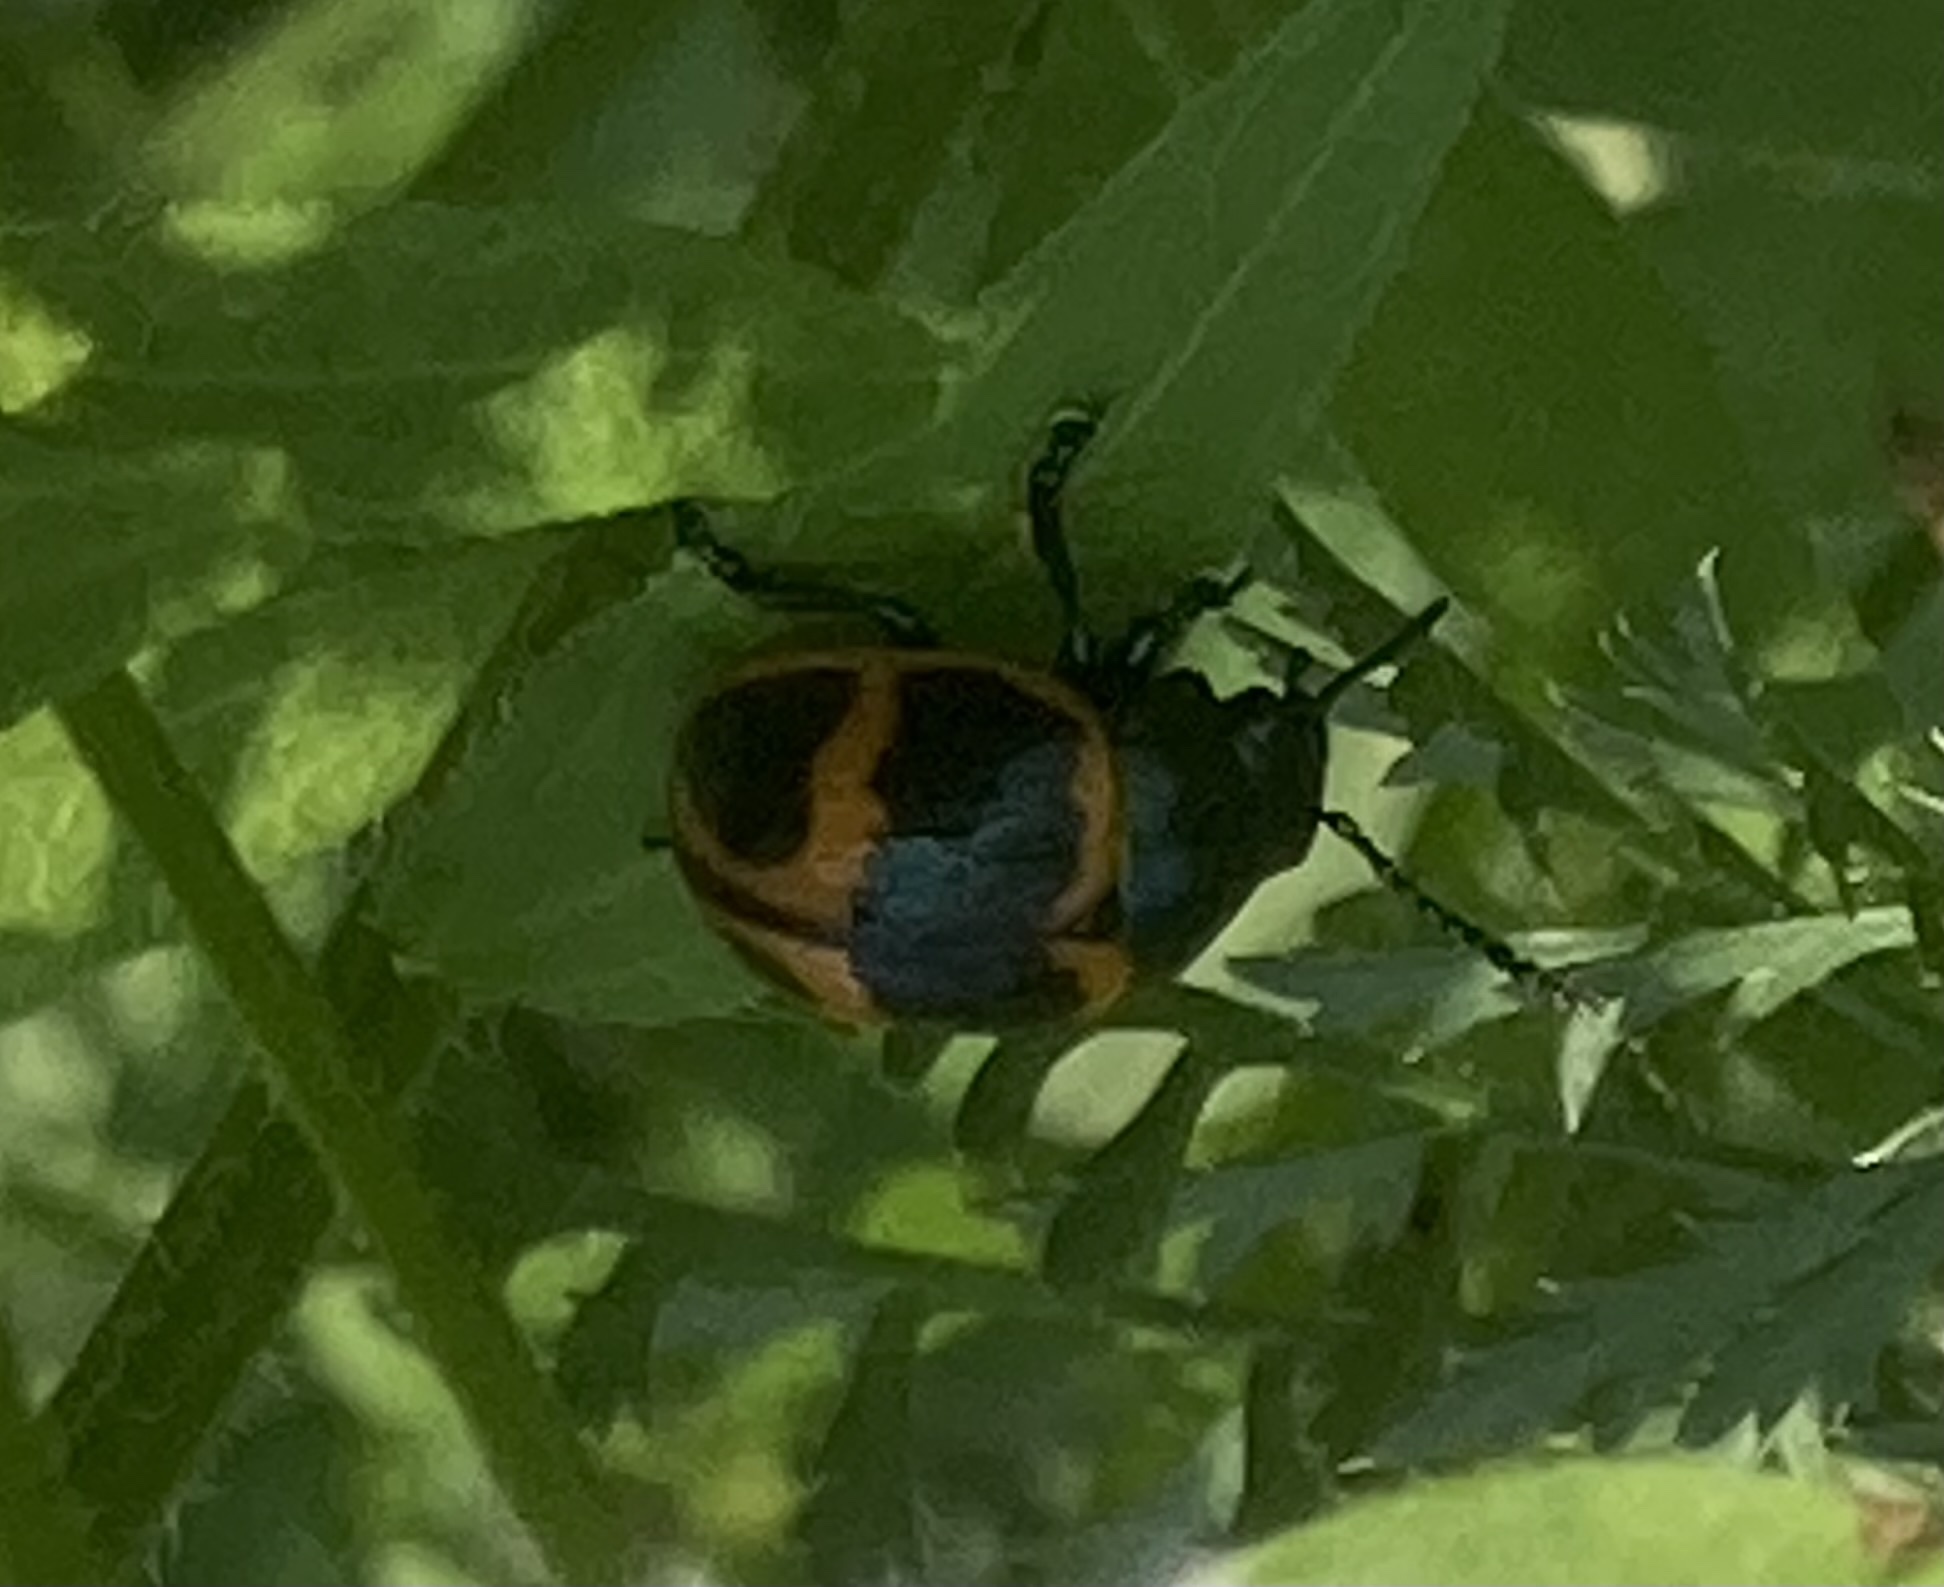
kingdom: Animalia
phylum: Arthropoda
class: Insecta
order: Coleoptera
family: Chrysomelidae
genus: Labidomera
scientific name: Labidomera clivicollis
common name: Swamp milkweed leaf beetle
